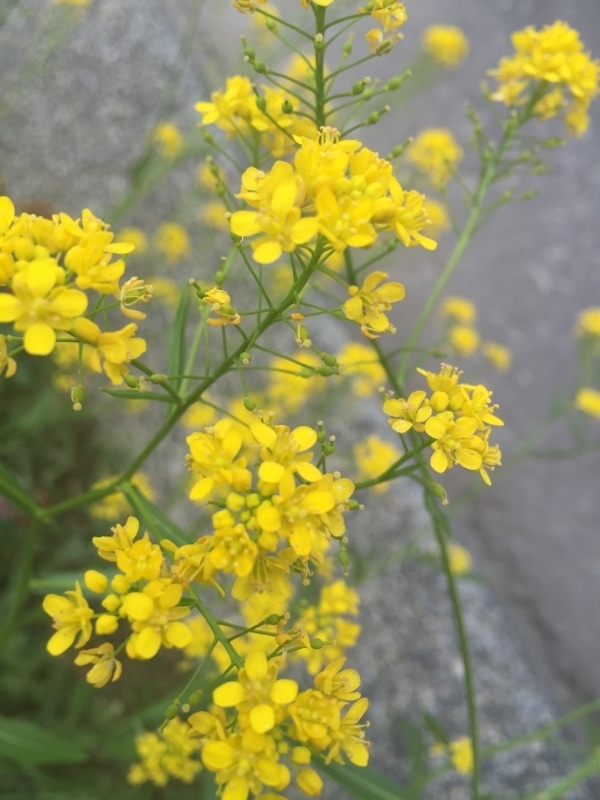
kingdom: Plantae
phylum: Tracheophyta
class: Magnoliopsida
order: Brassicales
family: Brassicaceae
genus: Rorippa
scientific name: Rorippa austriaca
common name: Austrian yellow-cress
